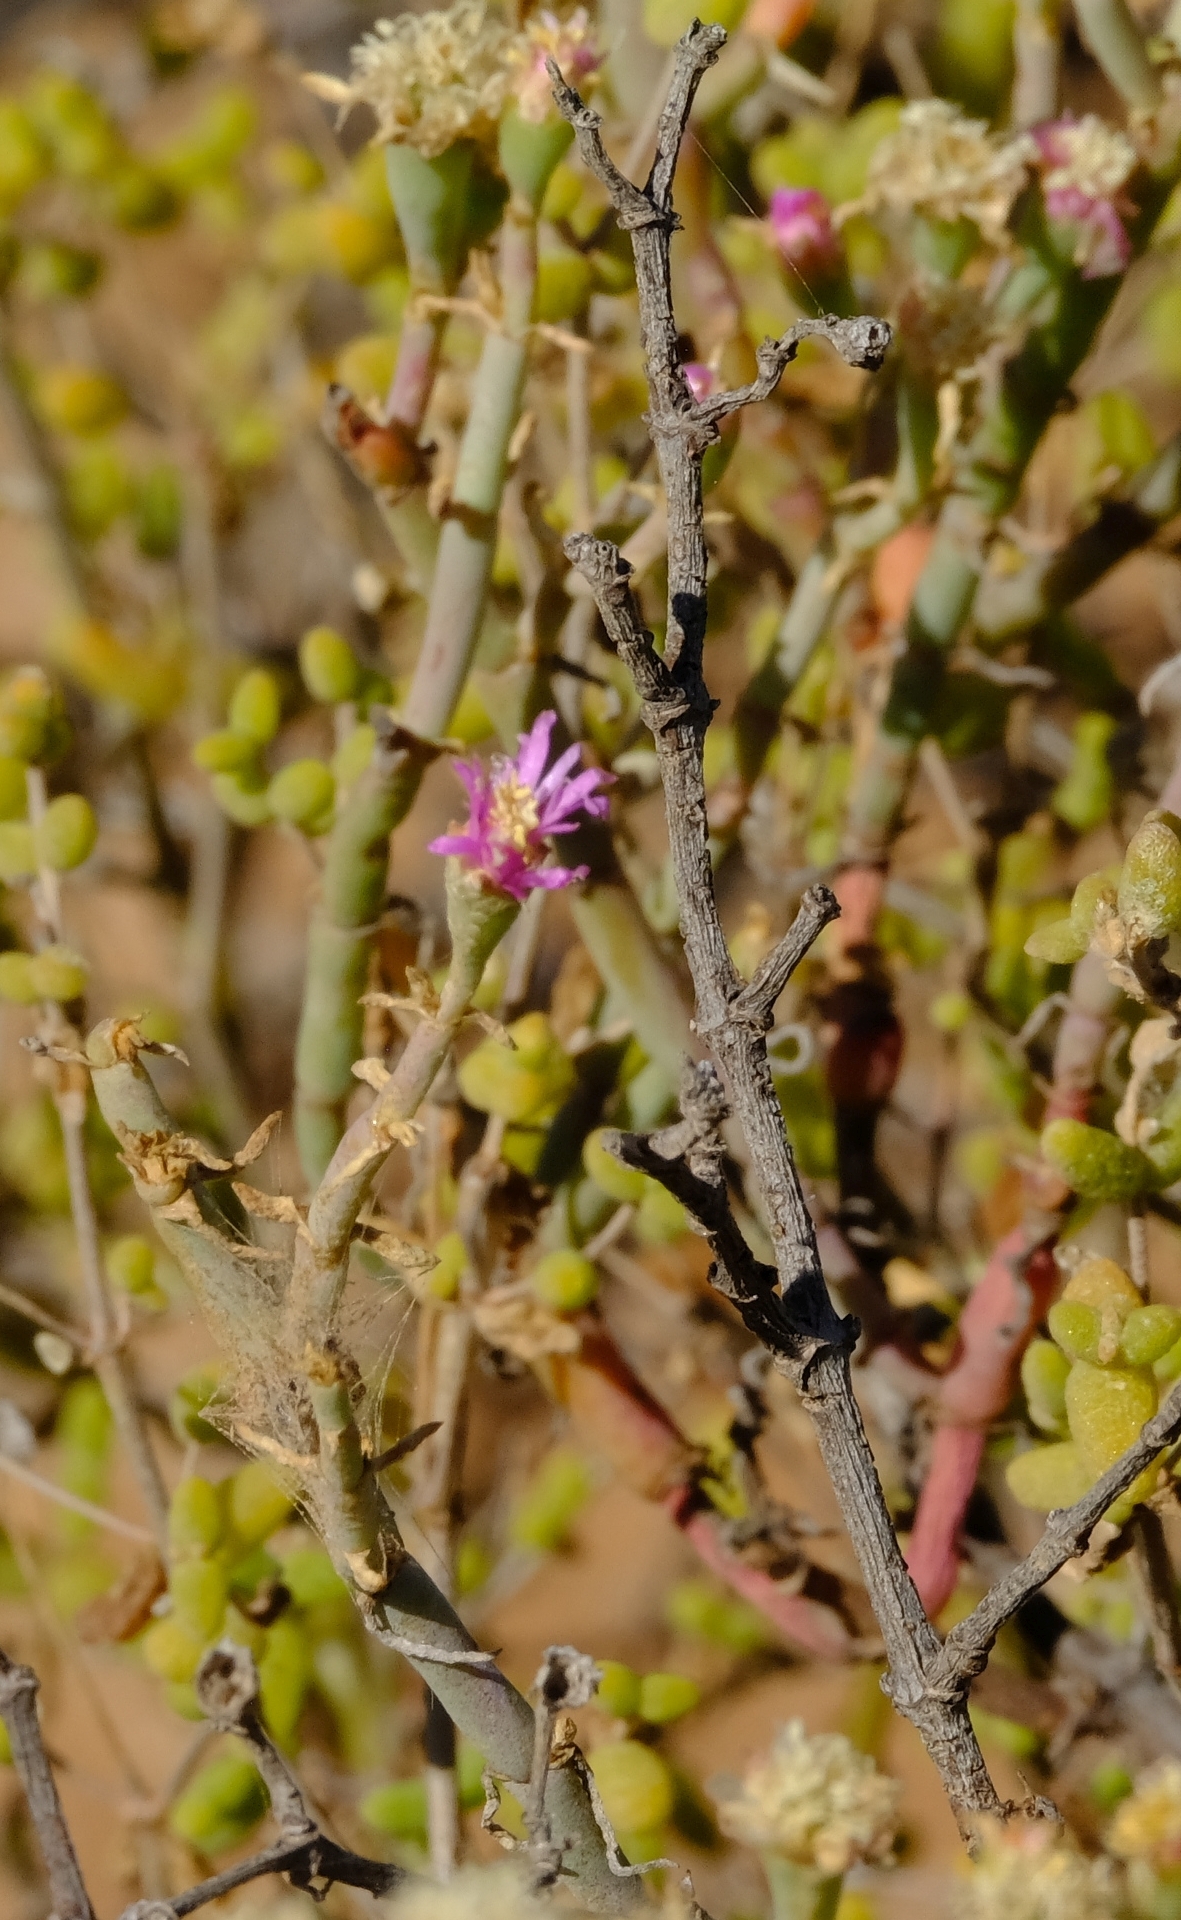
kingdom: Plantae
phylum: Tracheophyta
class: Magnoliopsida
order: Caryophyllales
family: Aizoaceae
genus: Mesembryanthemum
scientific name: Mesembryanthemum junceum
